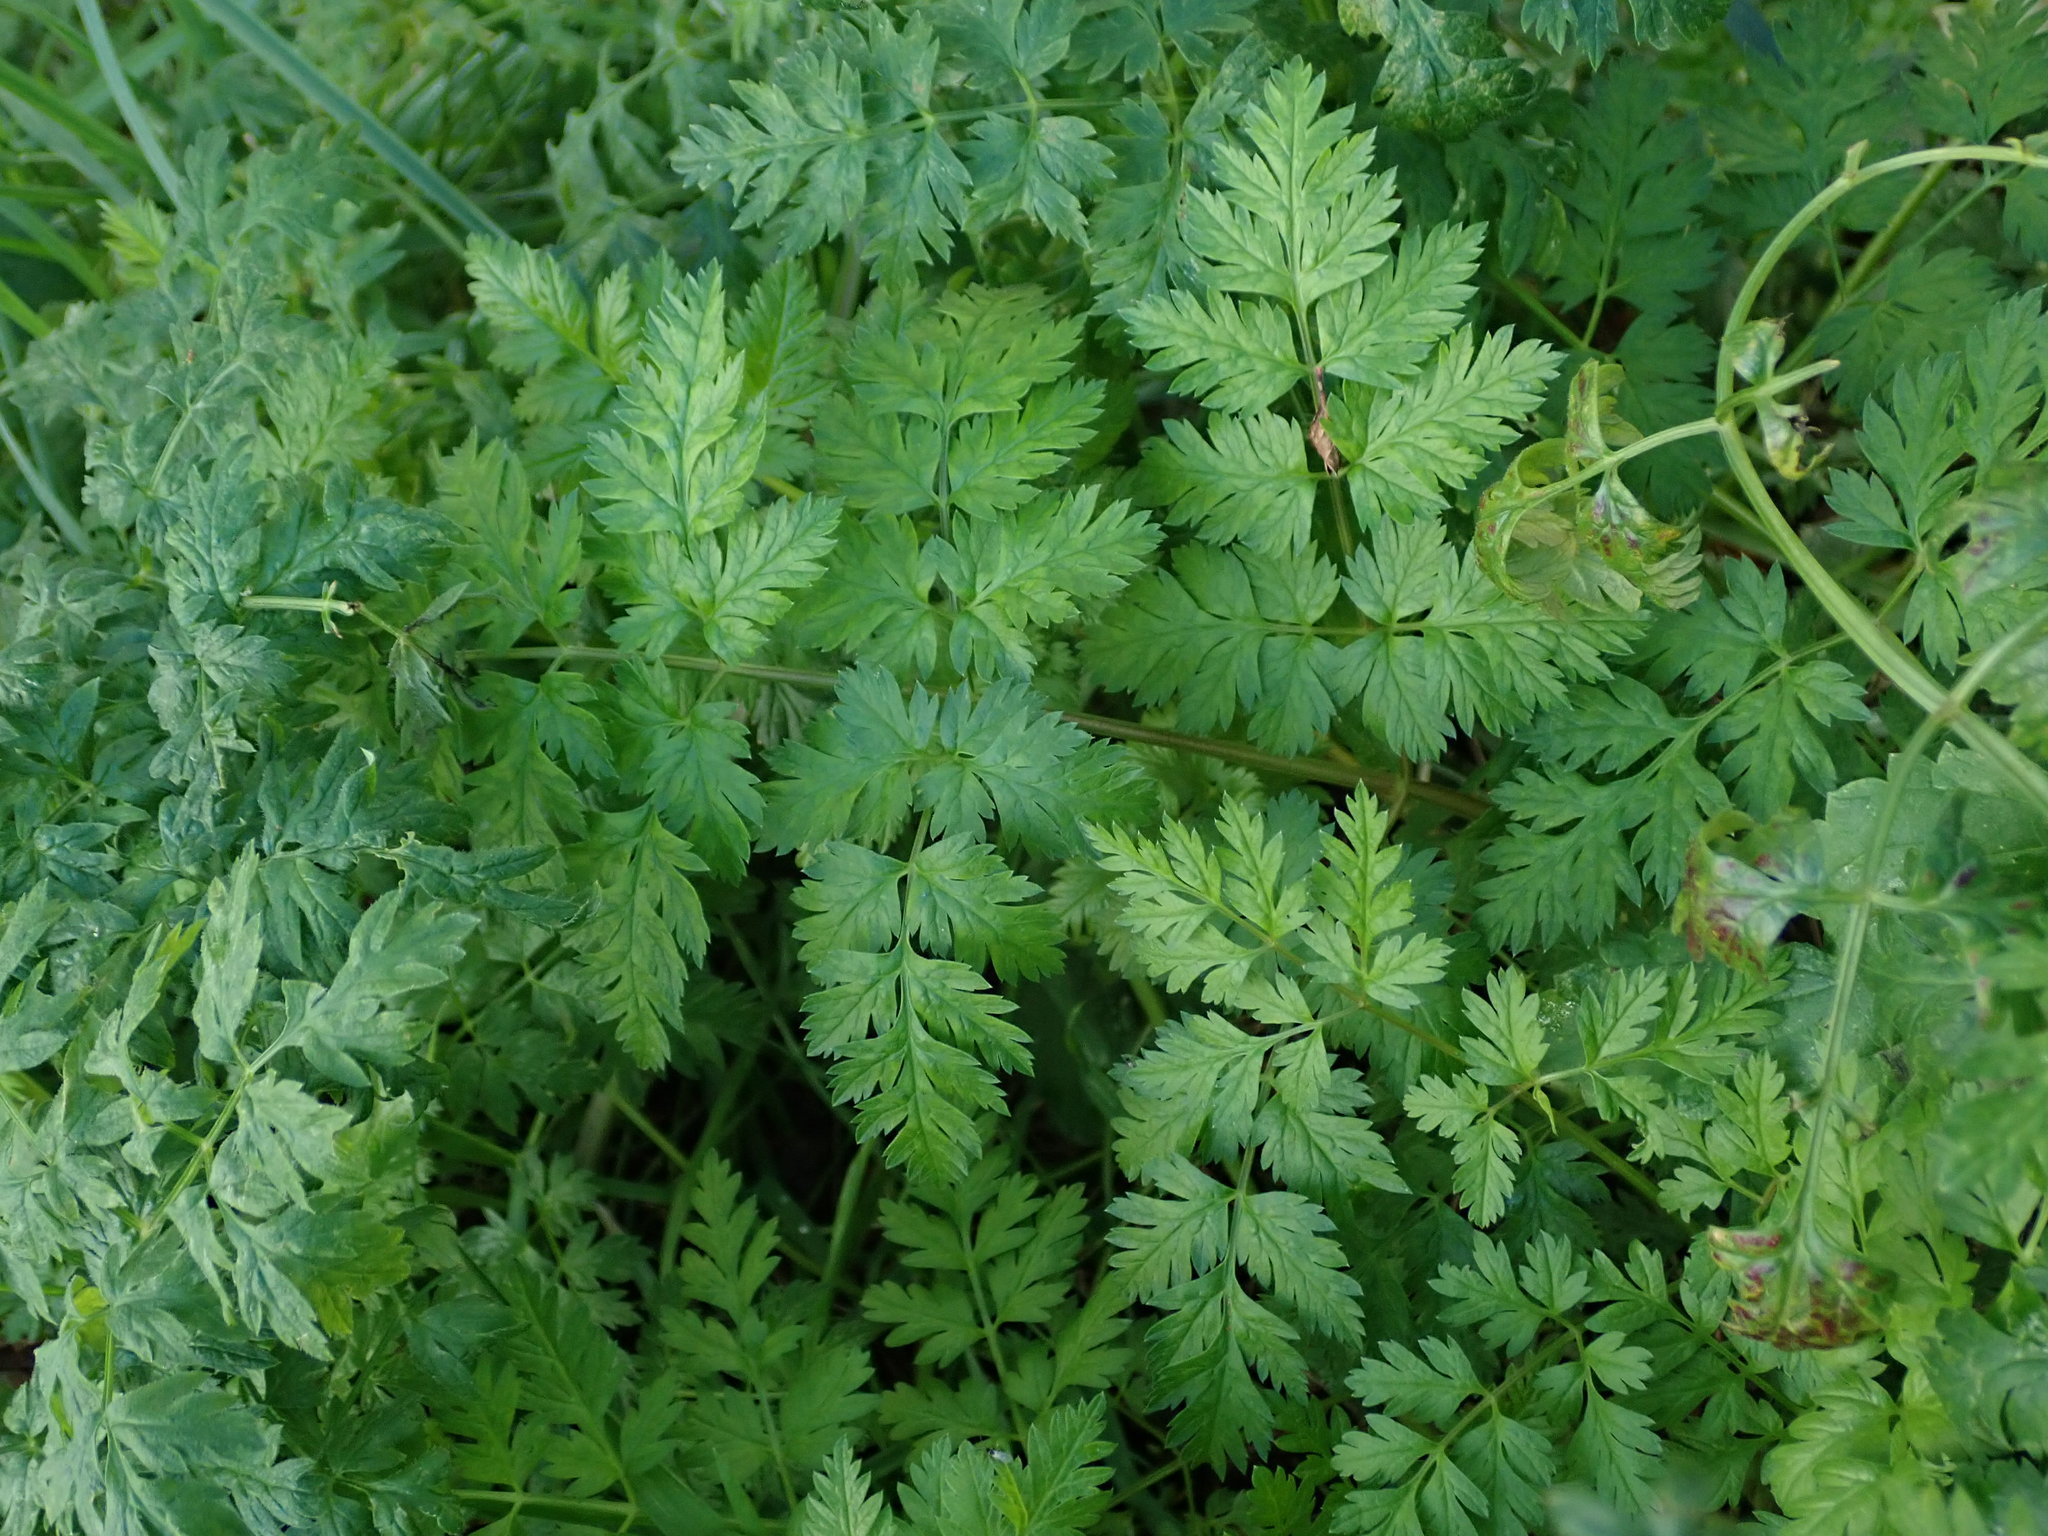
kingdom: Plantae
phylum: Tracheophyta
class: Magnoliopsida
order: Apiales
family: Apiaceae
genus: Anthriscus
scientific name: Anthriscus sylvestris
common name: Cow parsley
